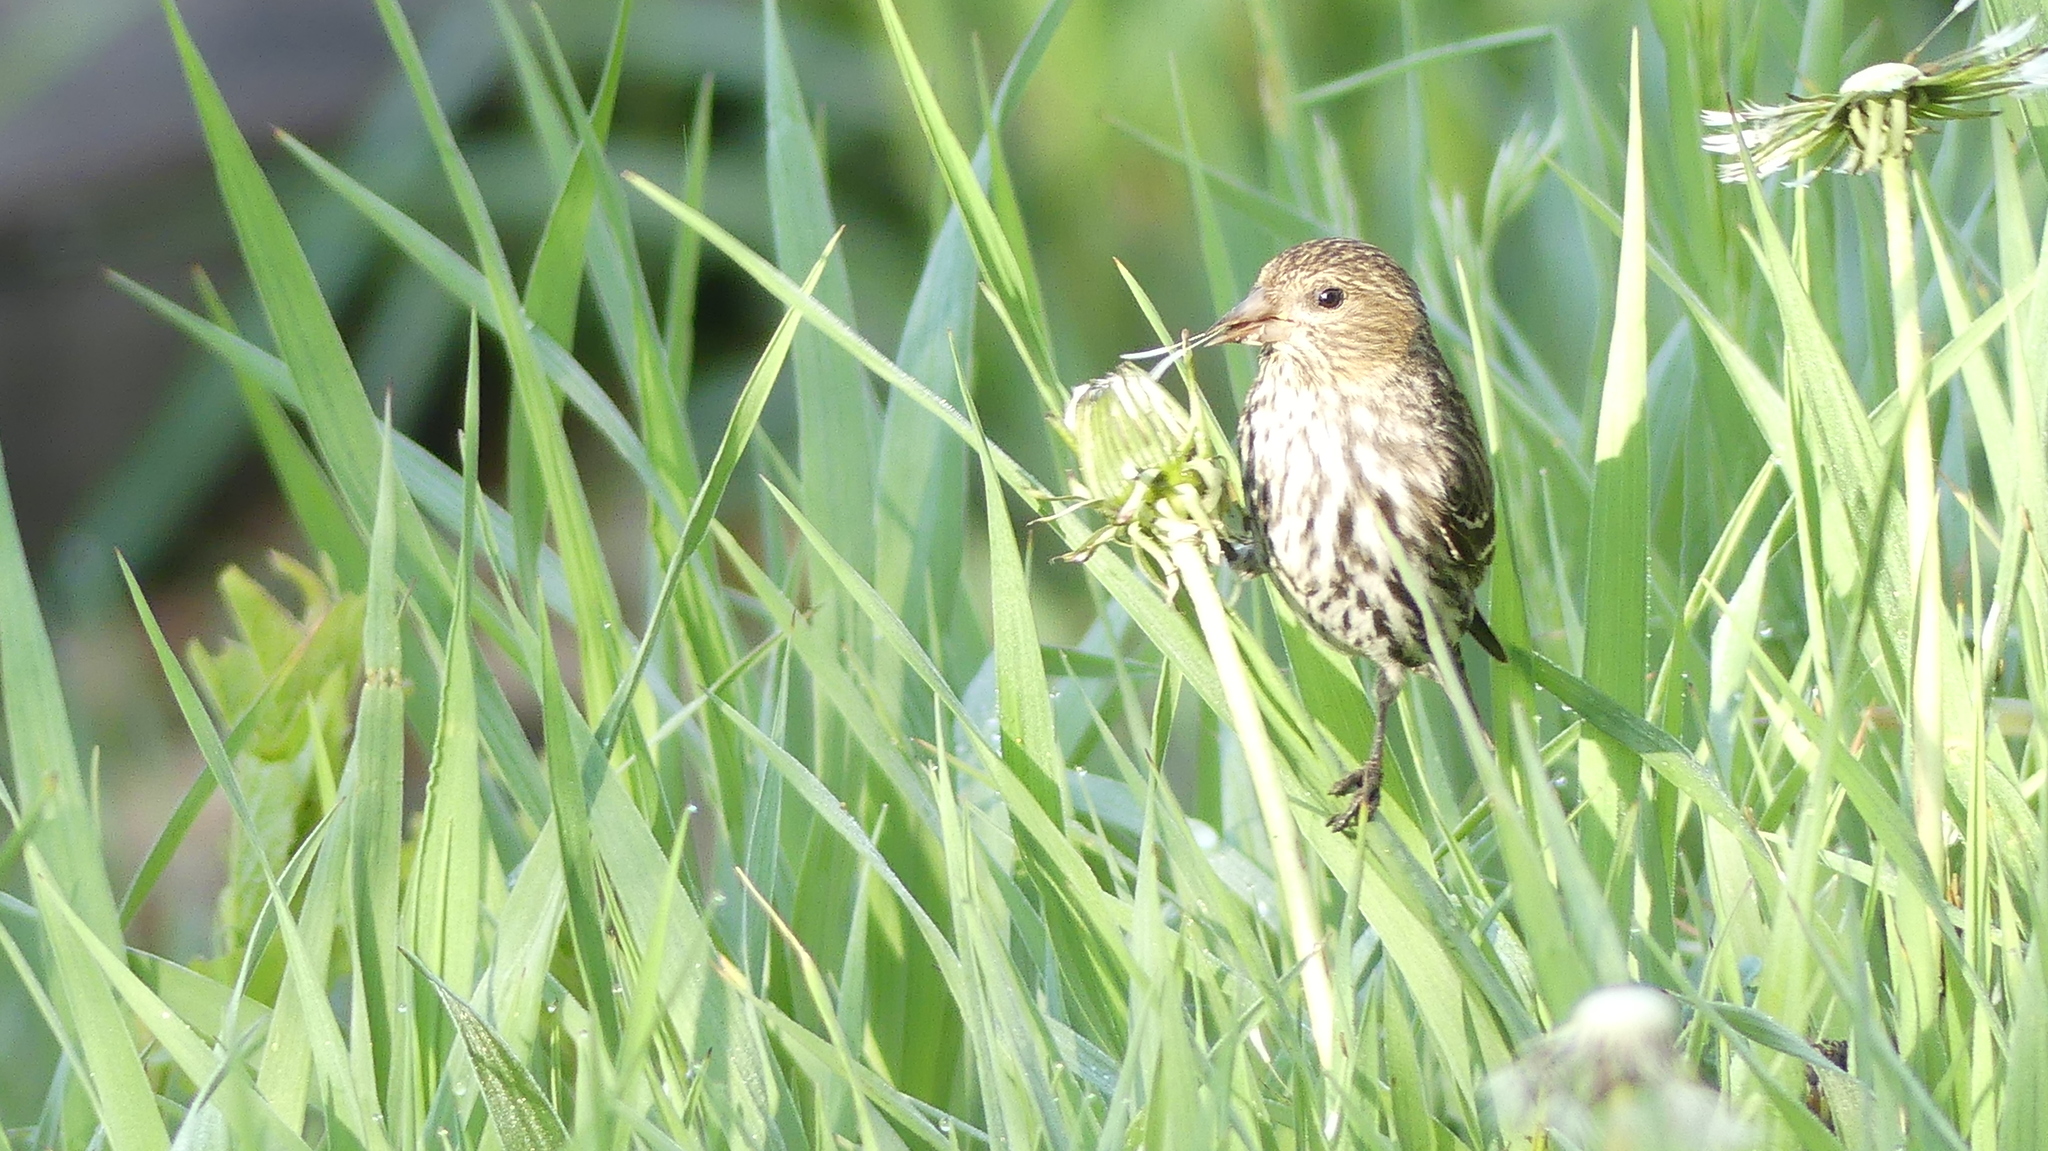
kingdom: Animalia
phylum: Chordata
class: Aves
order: Passeriformes
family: Fringillidae
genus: Haemorhous
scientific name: Haemorhous mexicanus
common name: House finch
